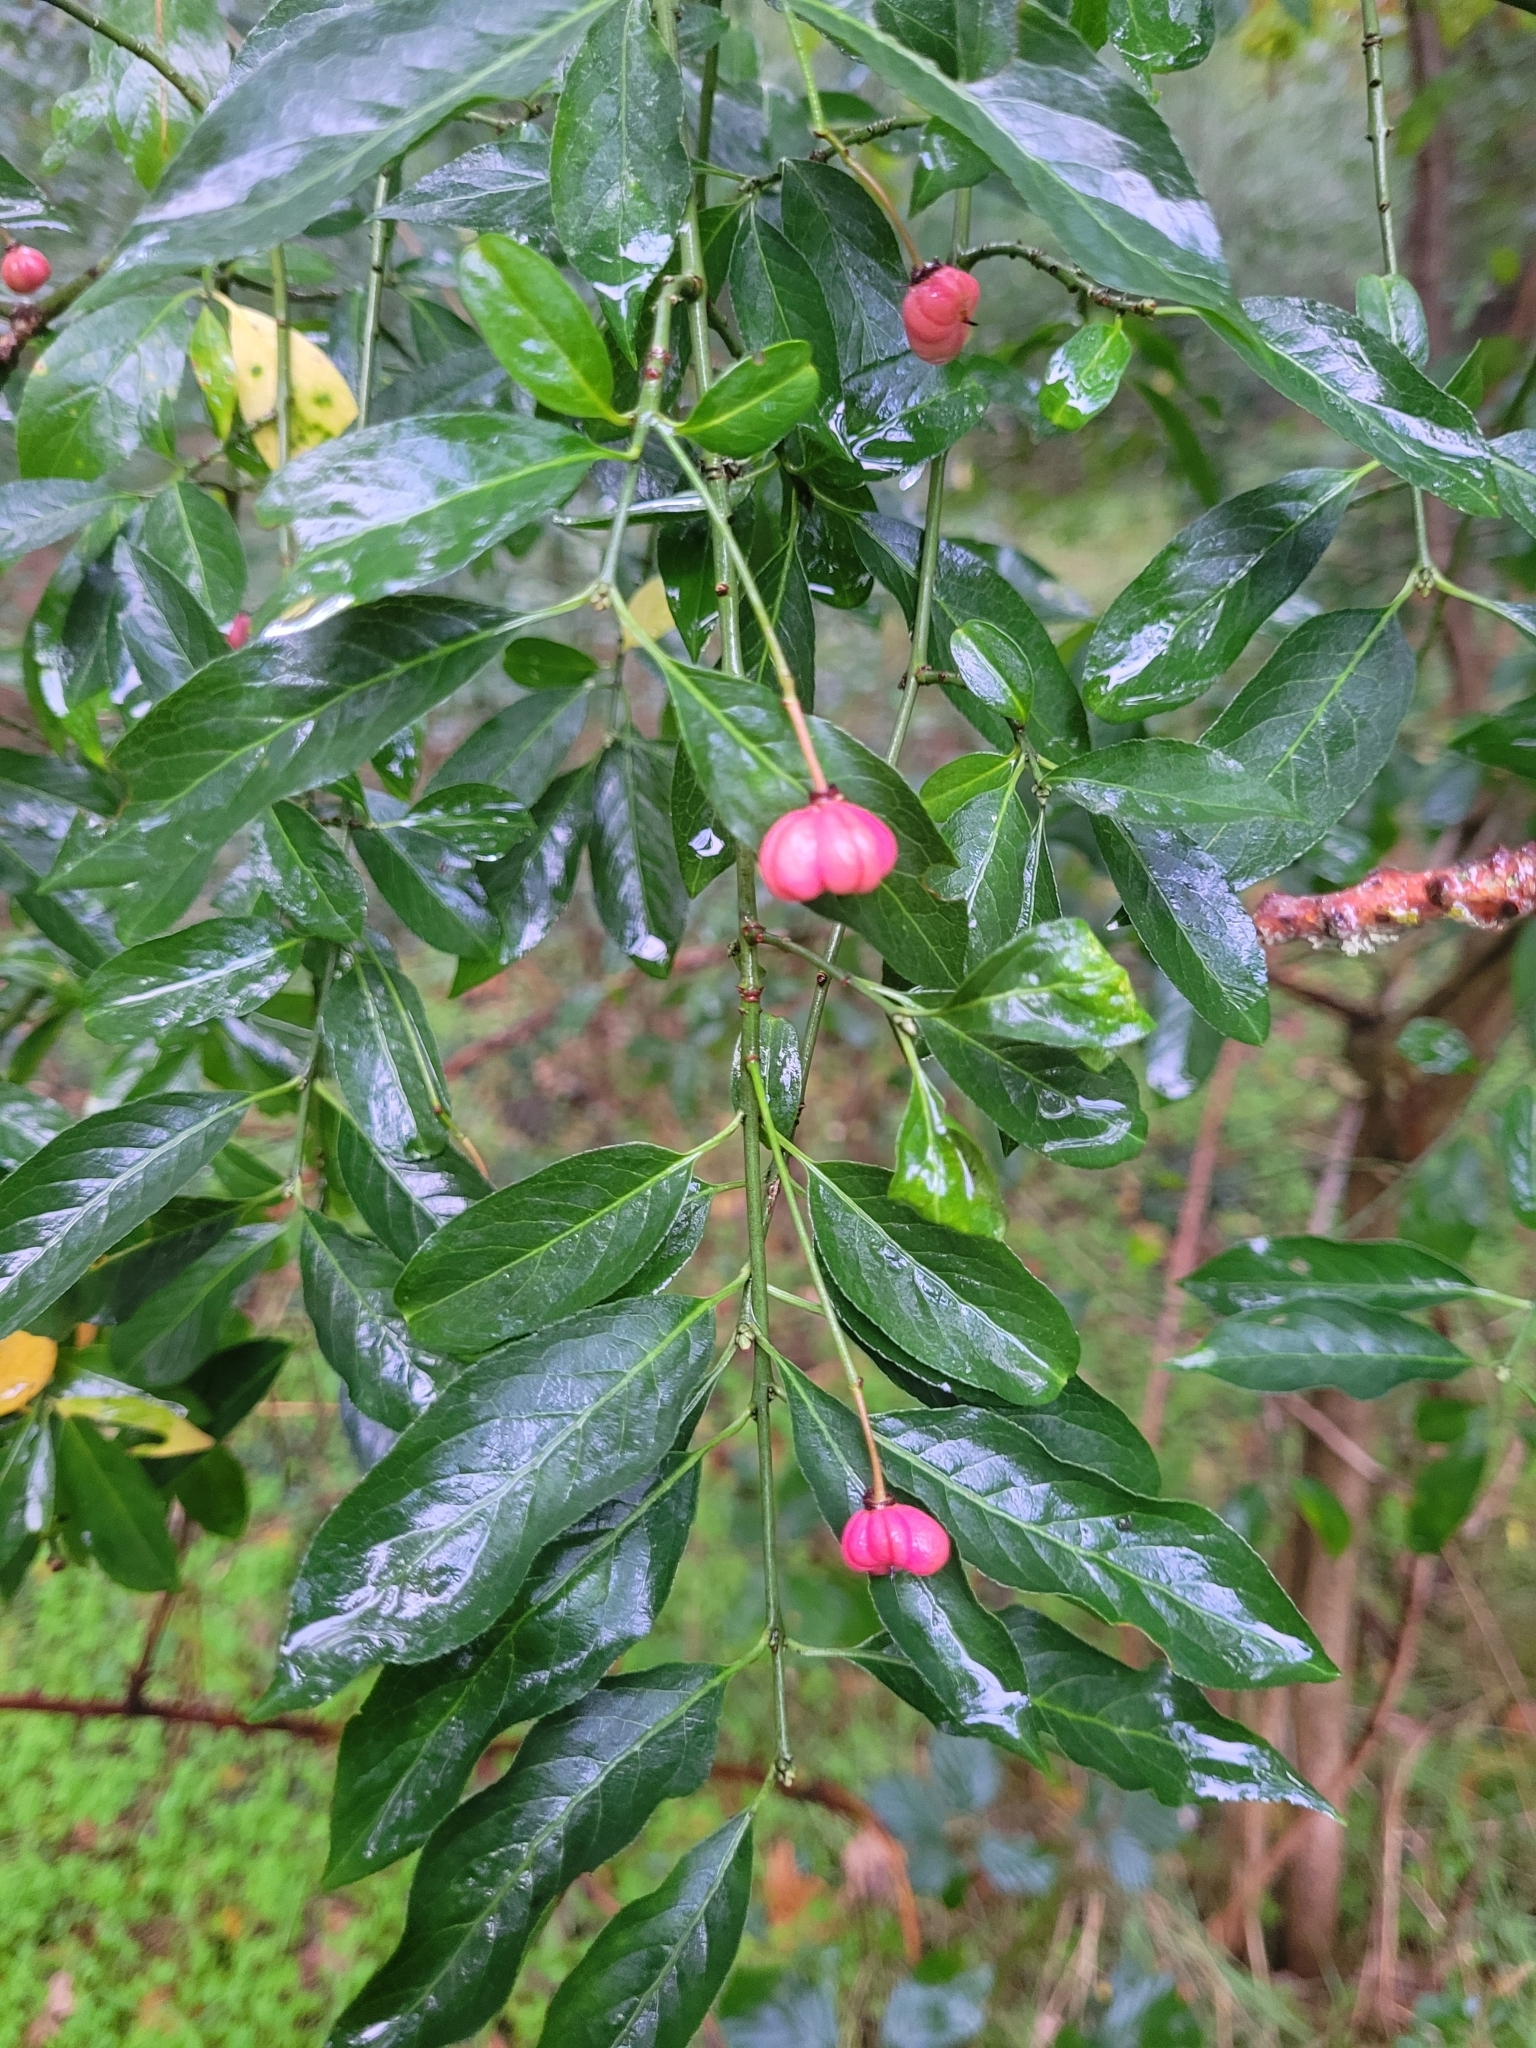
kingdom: Plantae
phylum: Tracheophyta
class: Magnoliopsida
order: Celastrales
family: Celastraceae
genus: Euonymus
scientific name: Euonymus europaeus
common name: Spindle
